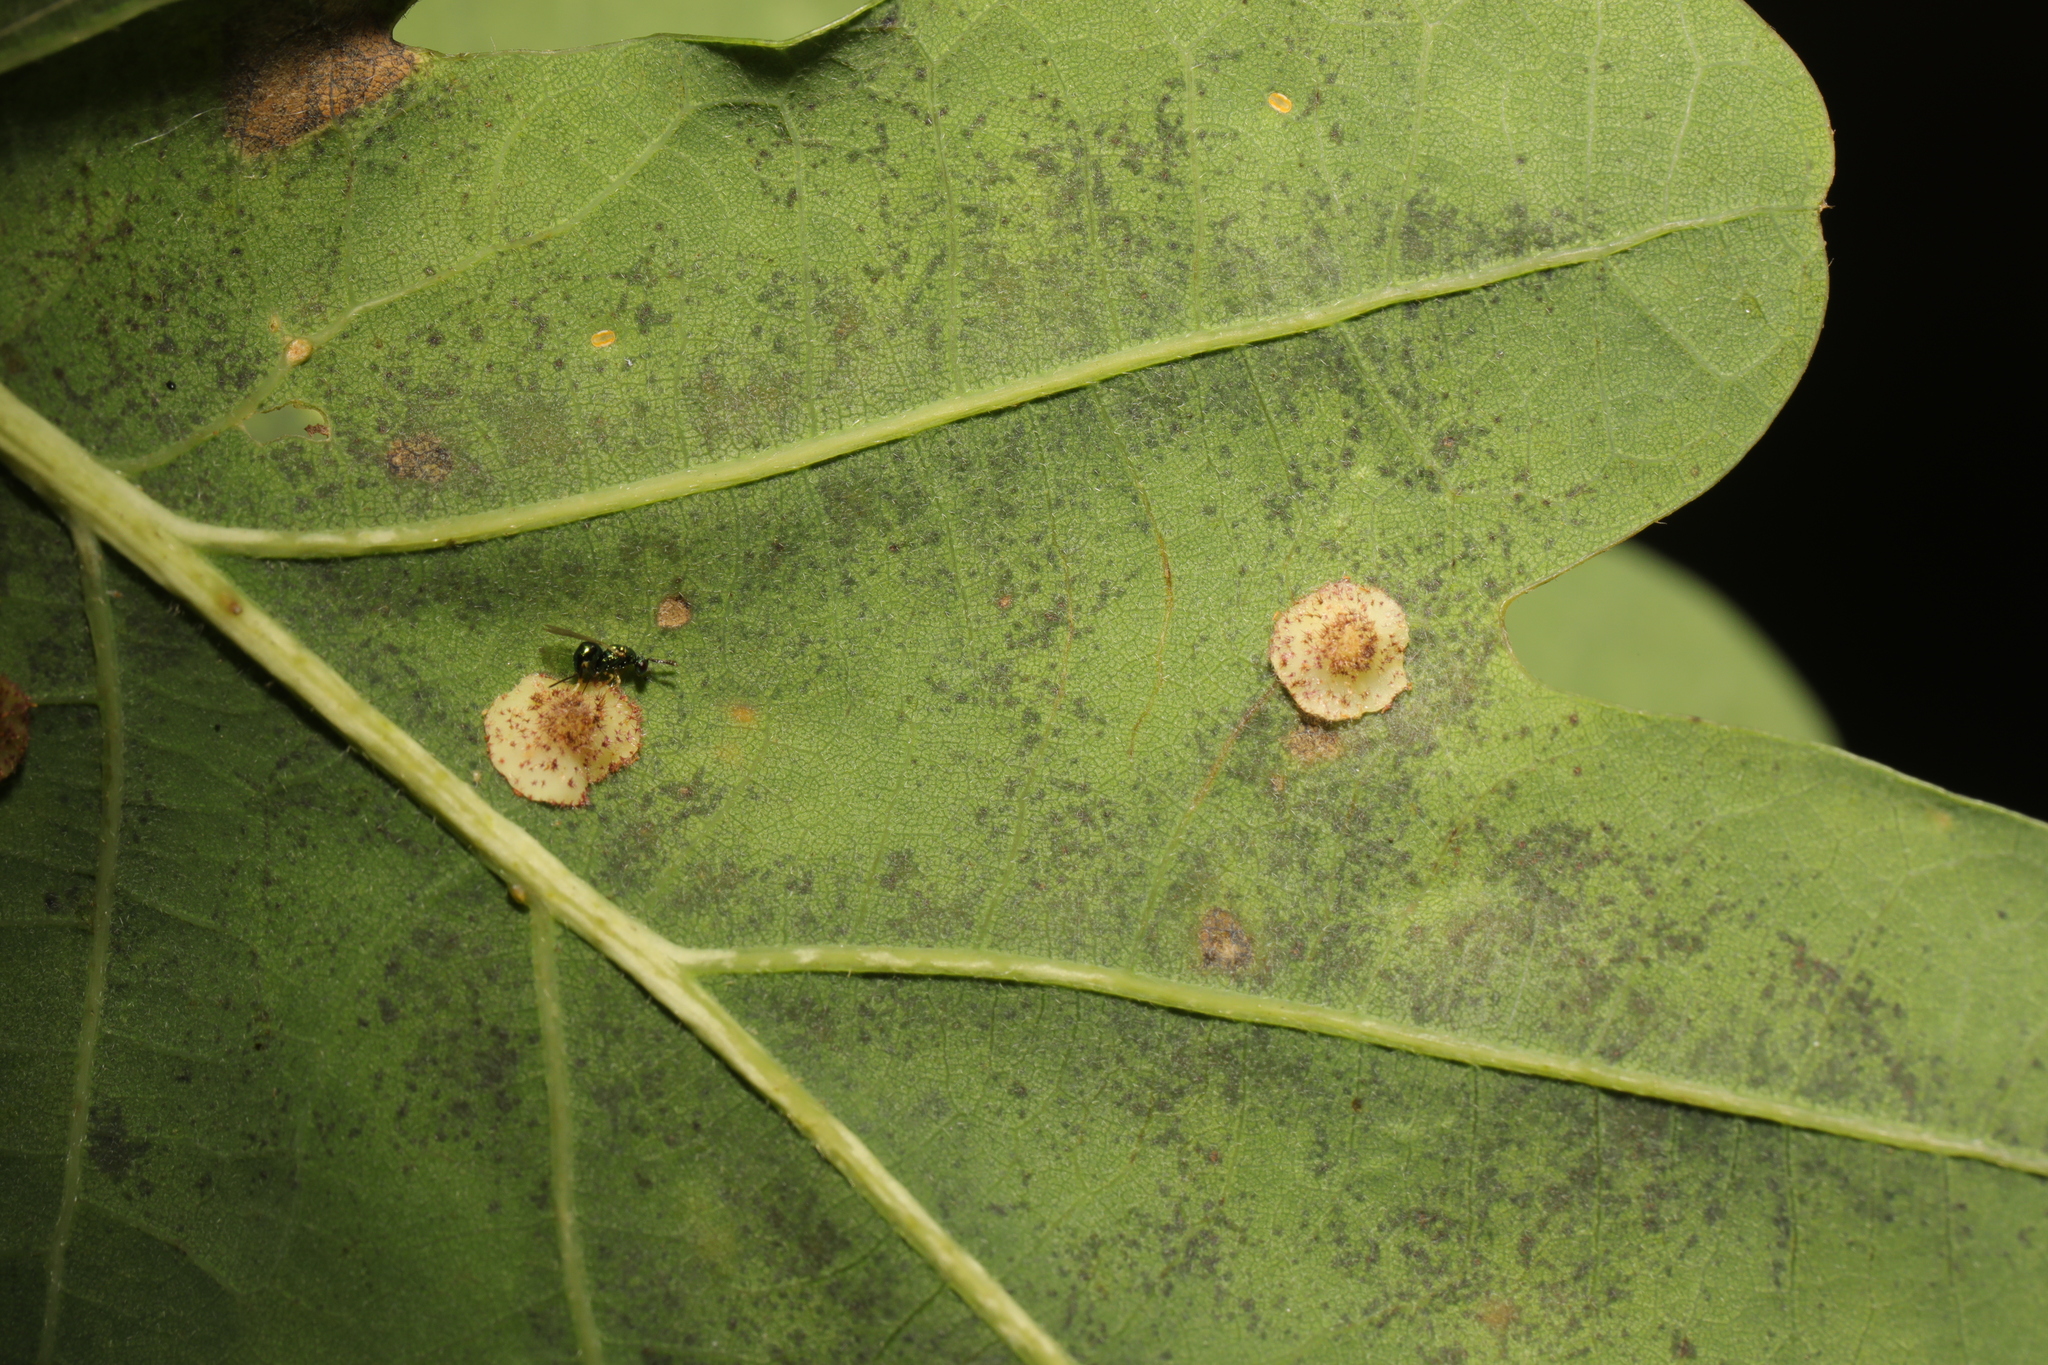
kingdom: Animalia
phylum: Arthropoda
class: Insecta
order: Hymenoptera
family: Cynipidae
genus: Neuroterus
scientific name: Neuroterus quercusbaccarum
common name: Common spangle gall
